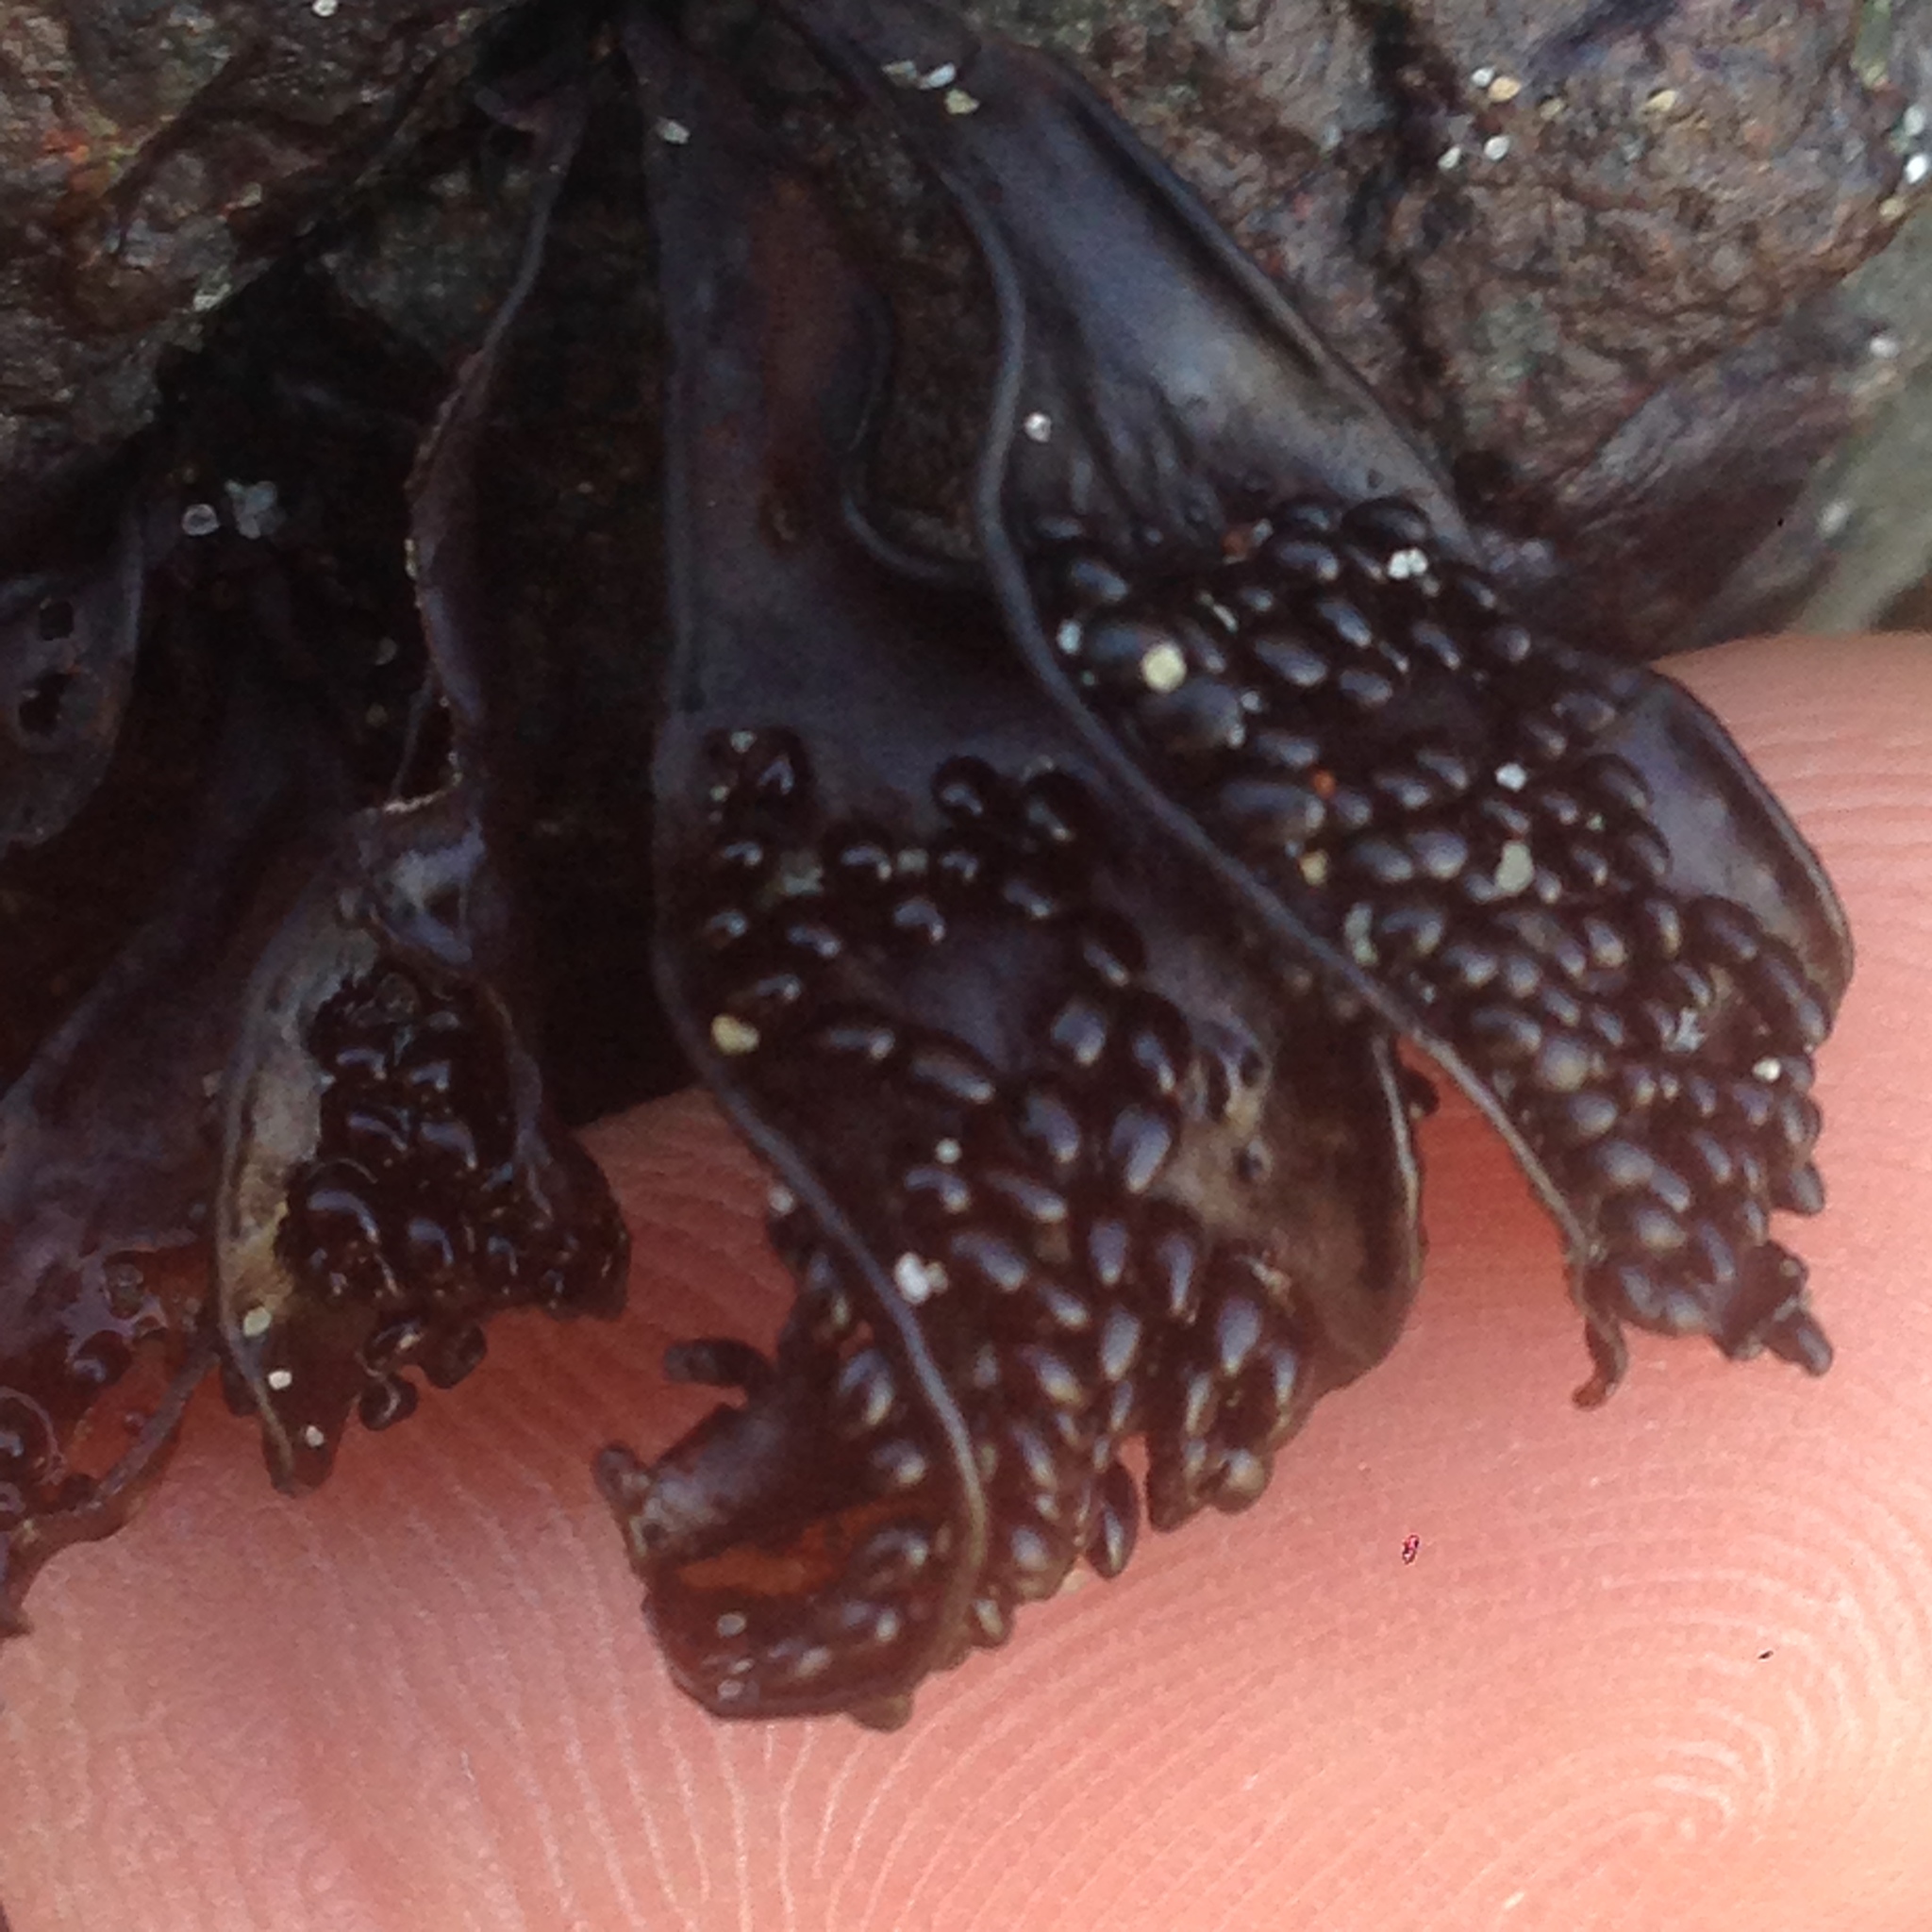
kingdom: Plantae
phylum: Rhodophyta
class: Florideophyceae
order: Gigartinales
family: Phyllophoraceae
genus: Mastocarpus
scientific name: Mastocarpus papillatus
